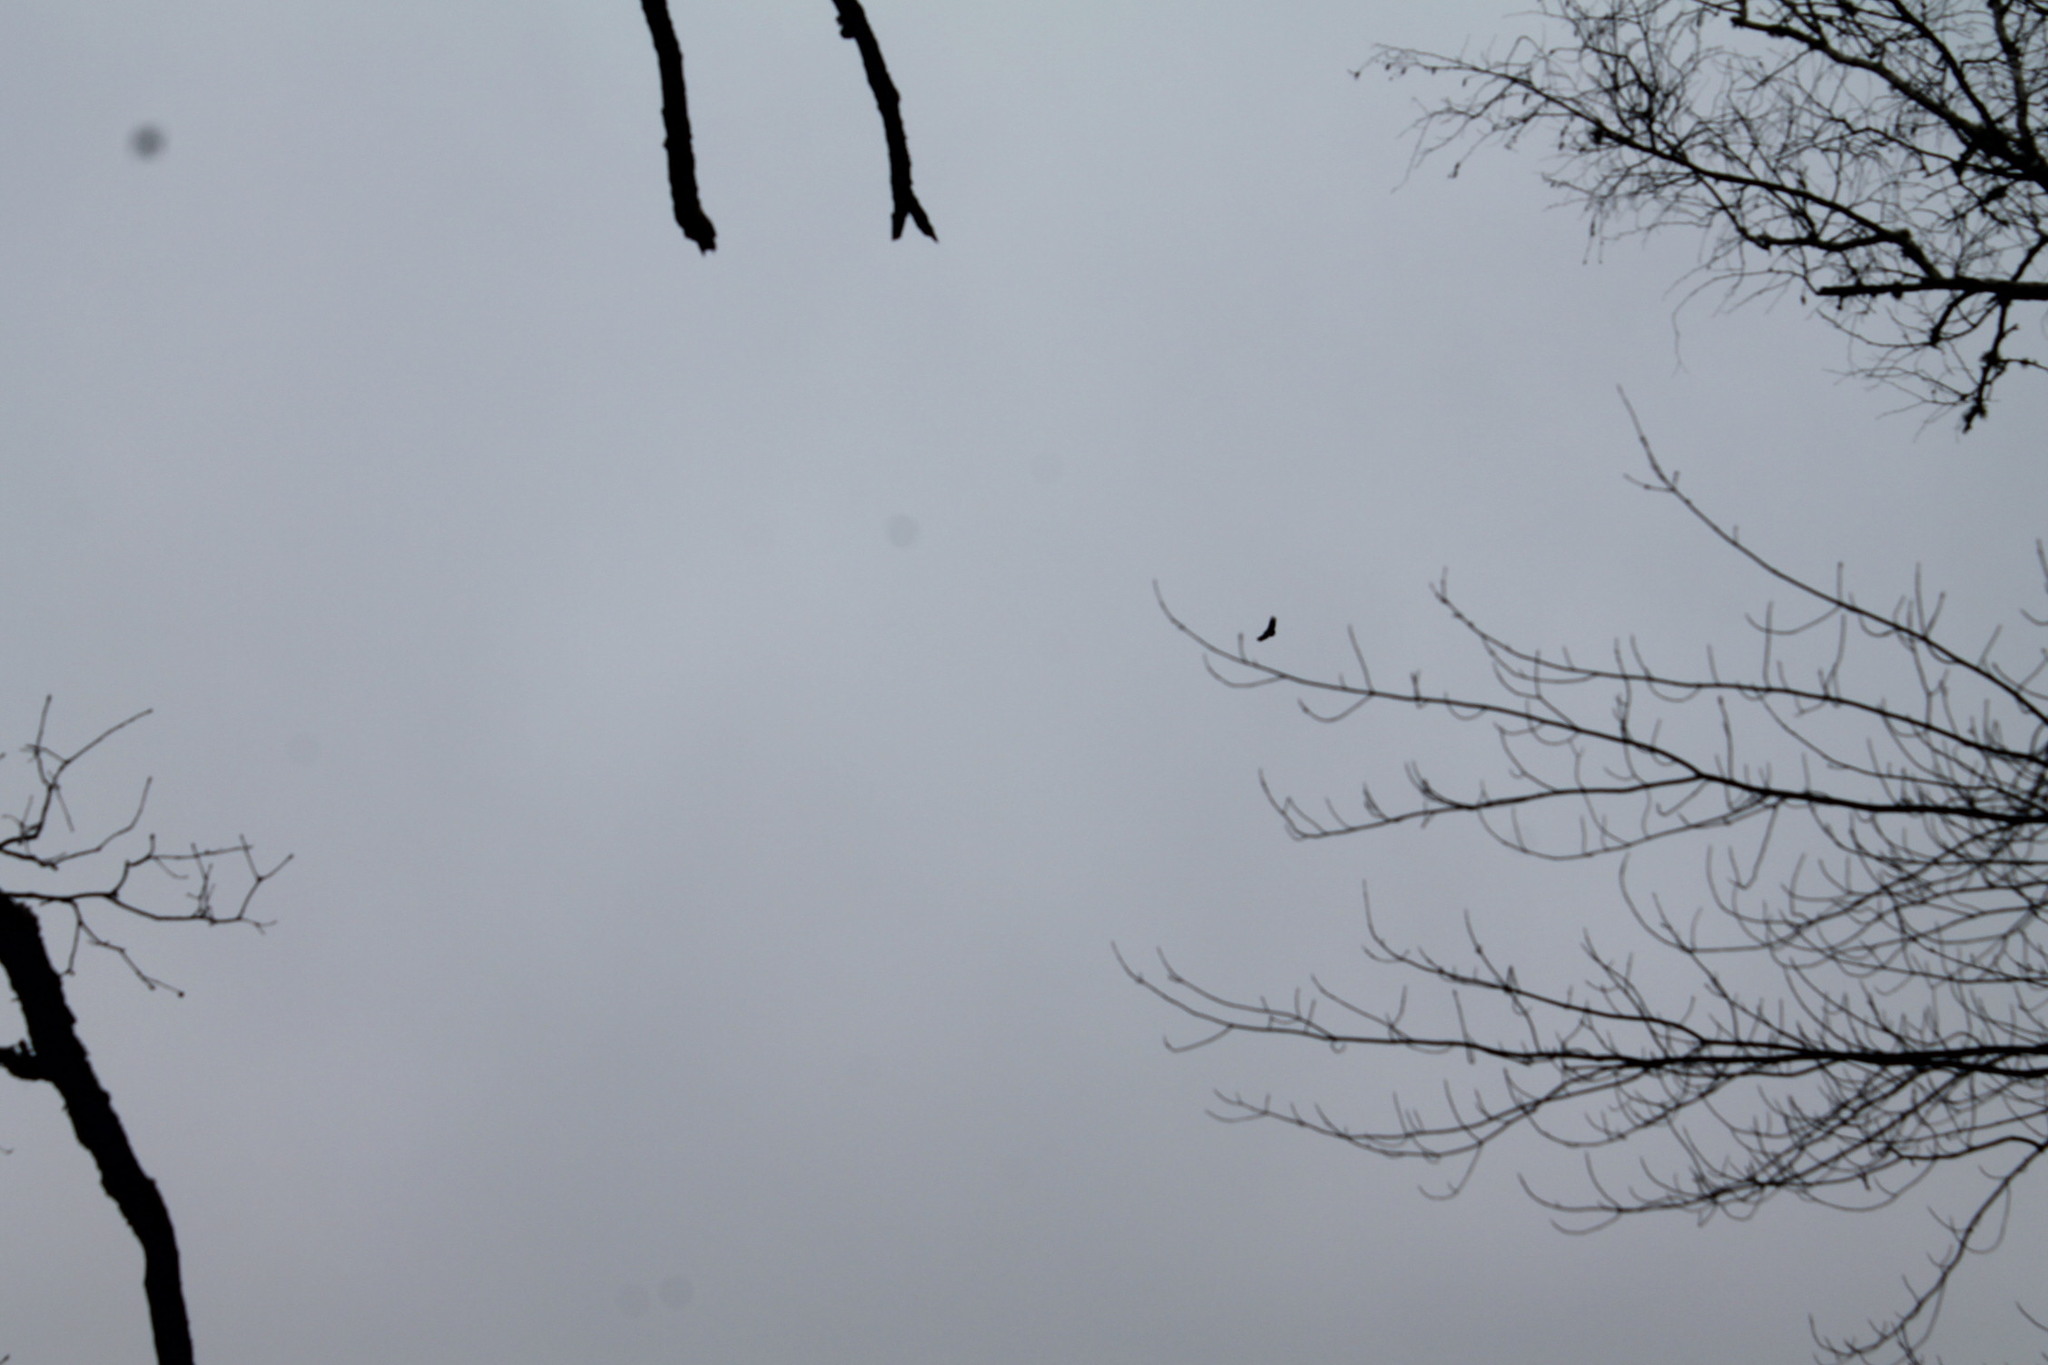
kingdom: Animalia
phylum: Chordata
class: Aves
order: Accipitriformes
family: Cathartidae
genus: Coragyps
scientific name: Coragyps atratus
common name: Black vulture
